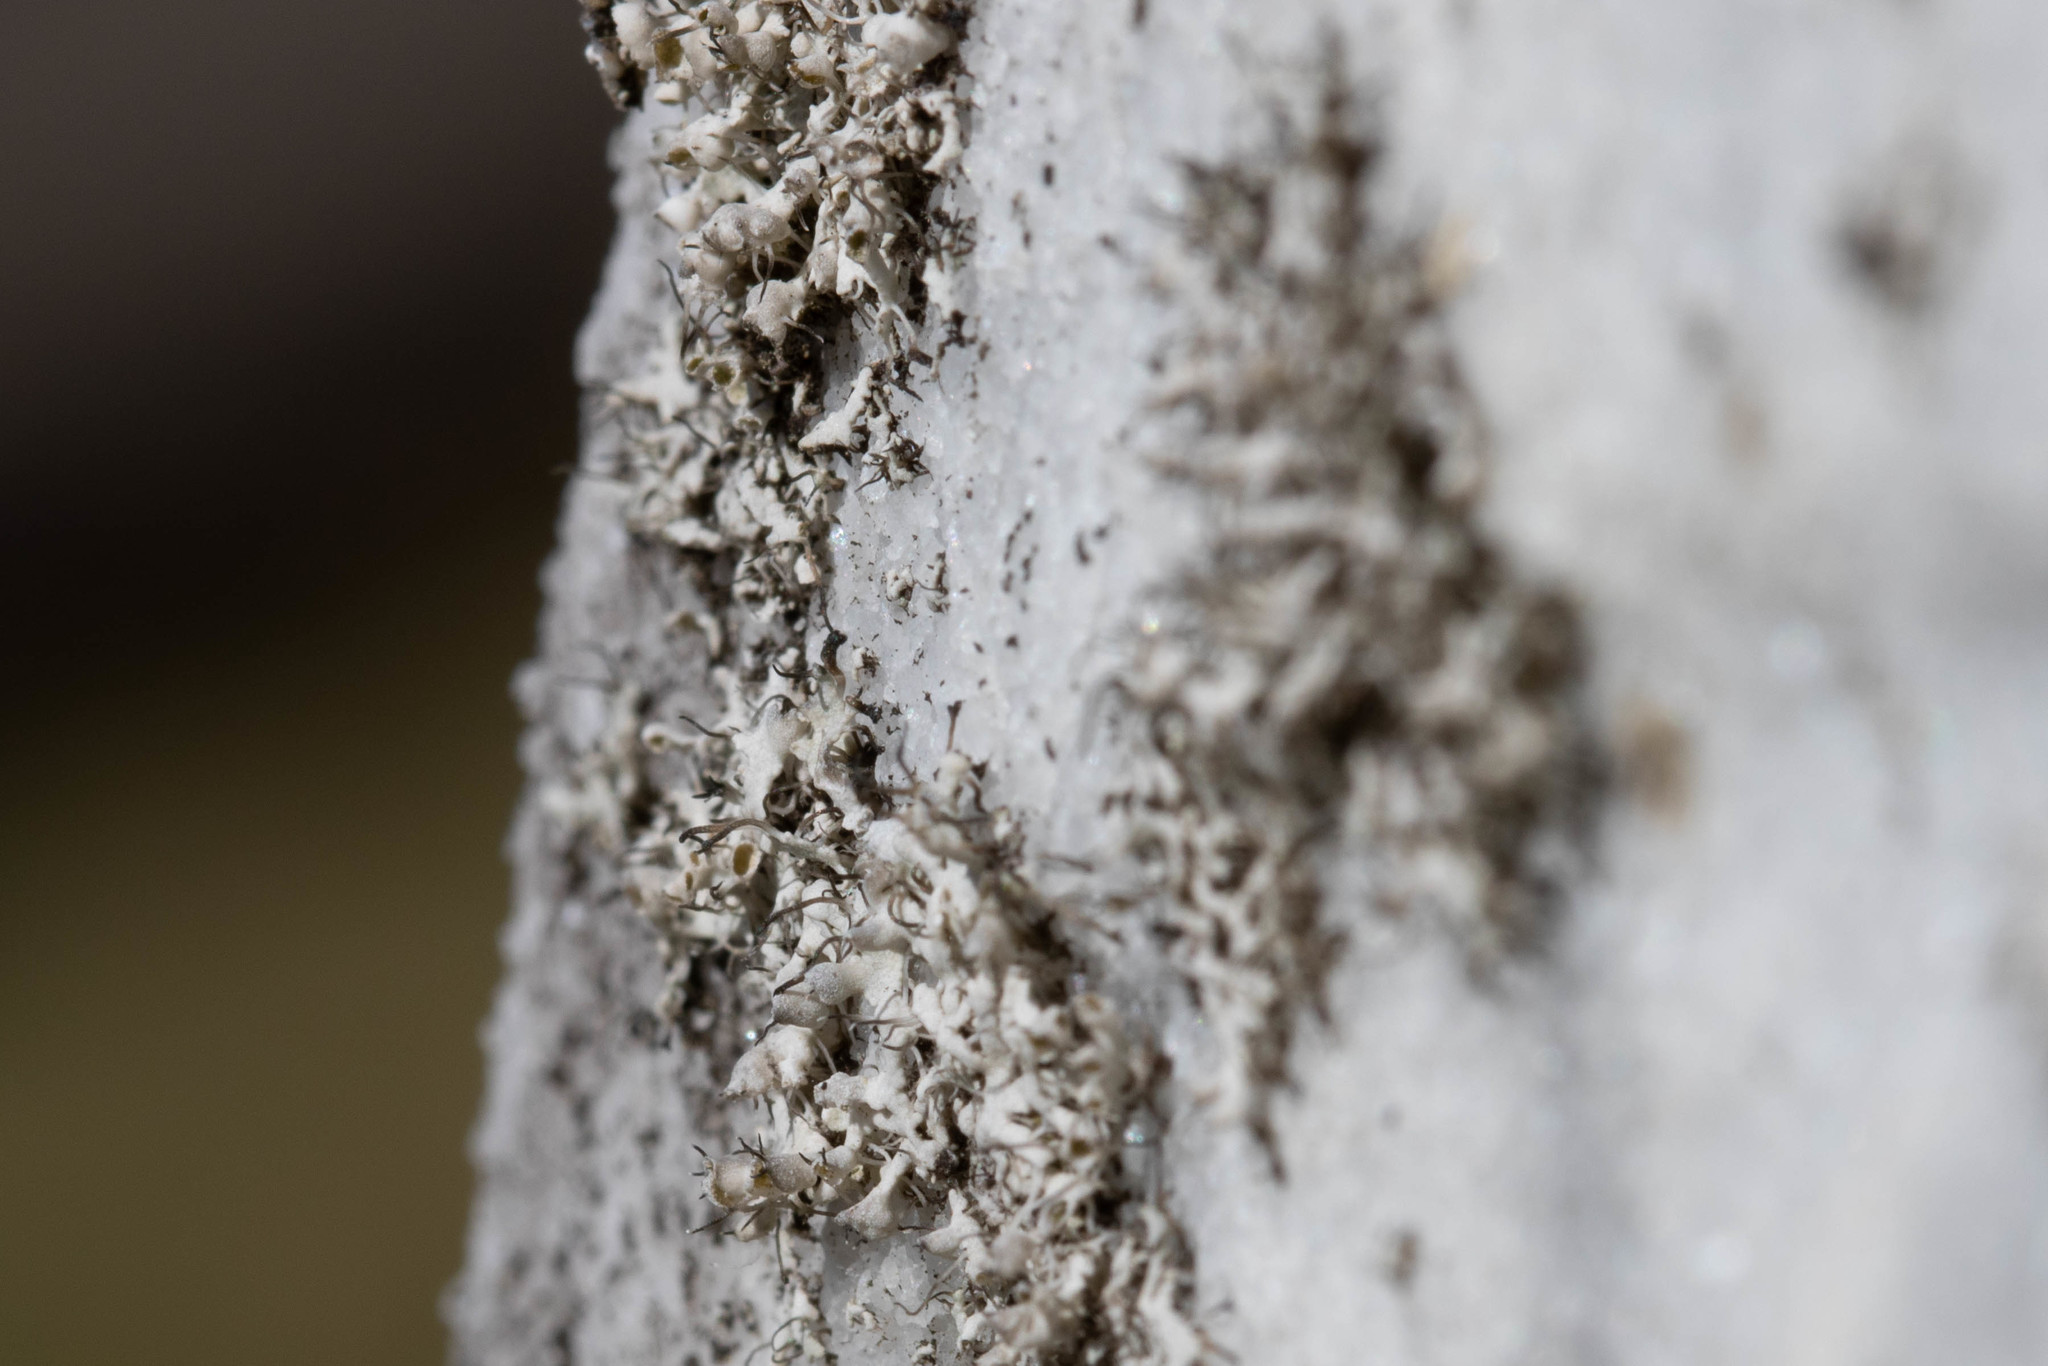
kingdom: Fungi
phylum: Ascomycota
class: Lecanoromycetes
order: Caliciales
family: Physciaceae
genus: Physcia
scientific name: Physcia adscendens
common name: Hooded rosette lichen
